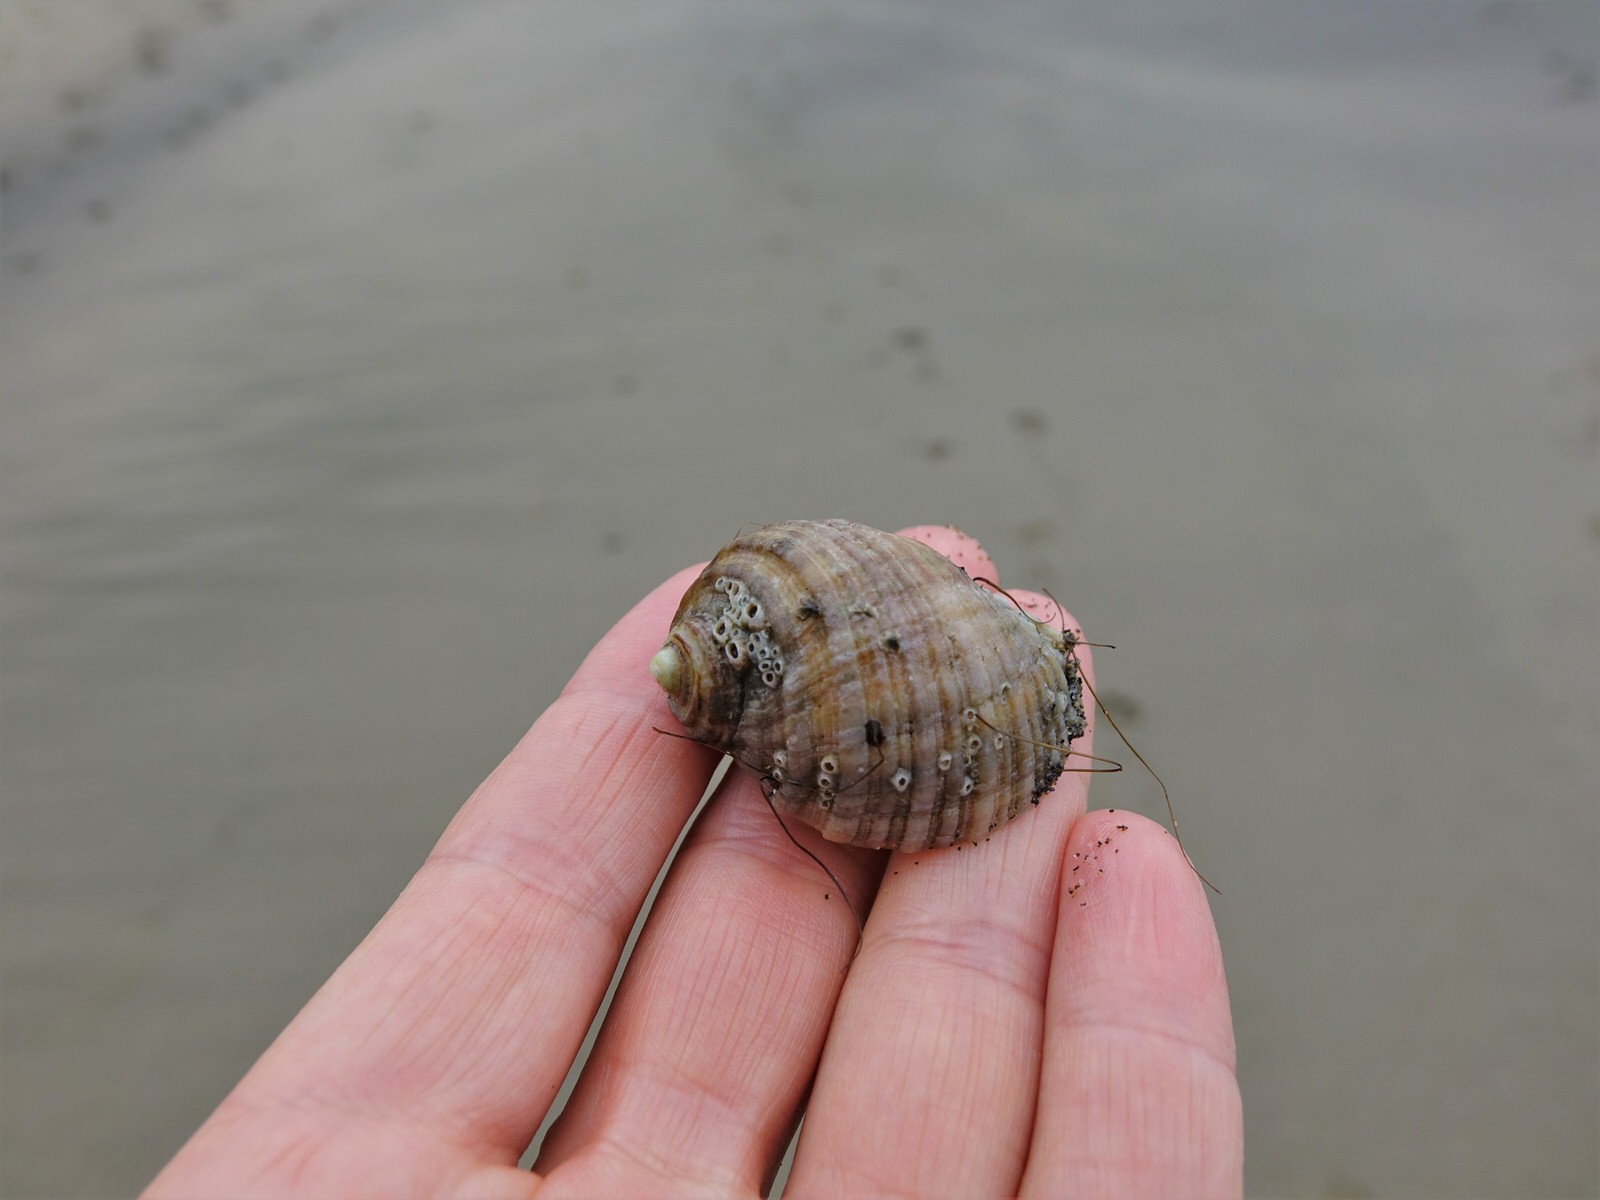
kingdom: Animalia
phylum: Mollusca
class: Gastropoda
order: Neogastropoda
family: Muricidae
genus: Dicathais
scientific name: Dicathais orbita
